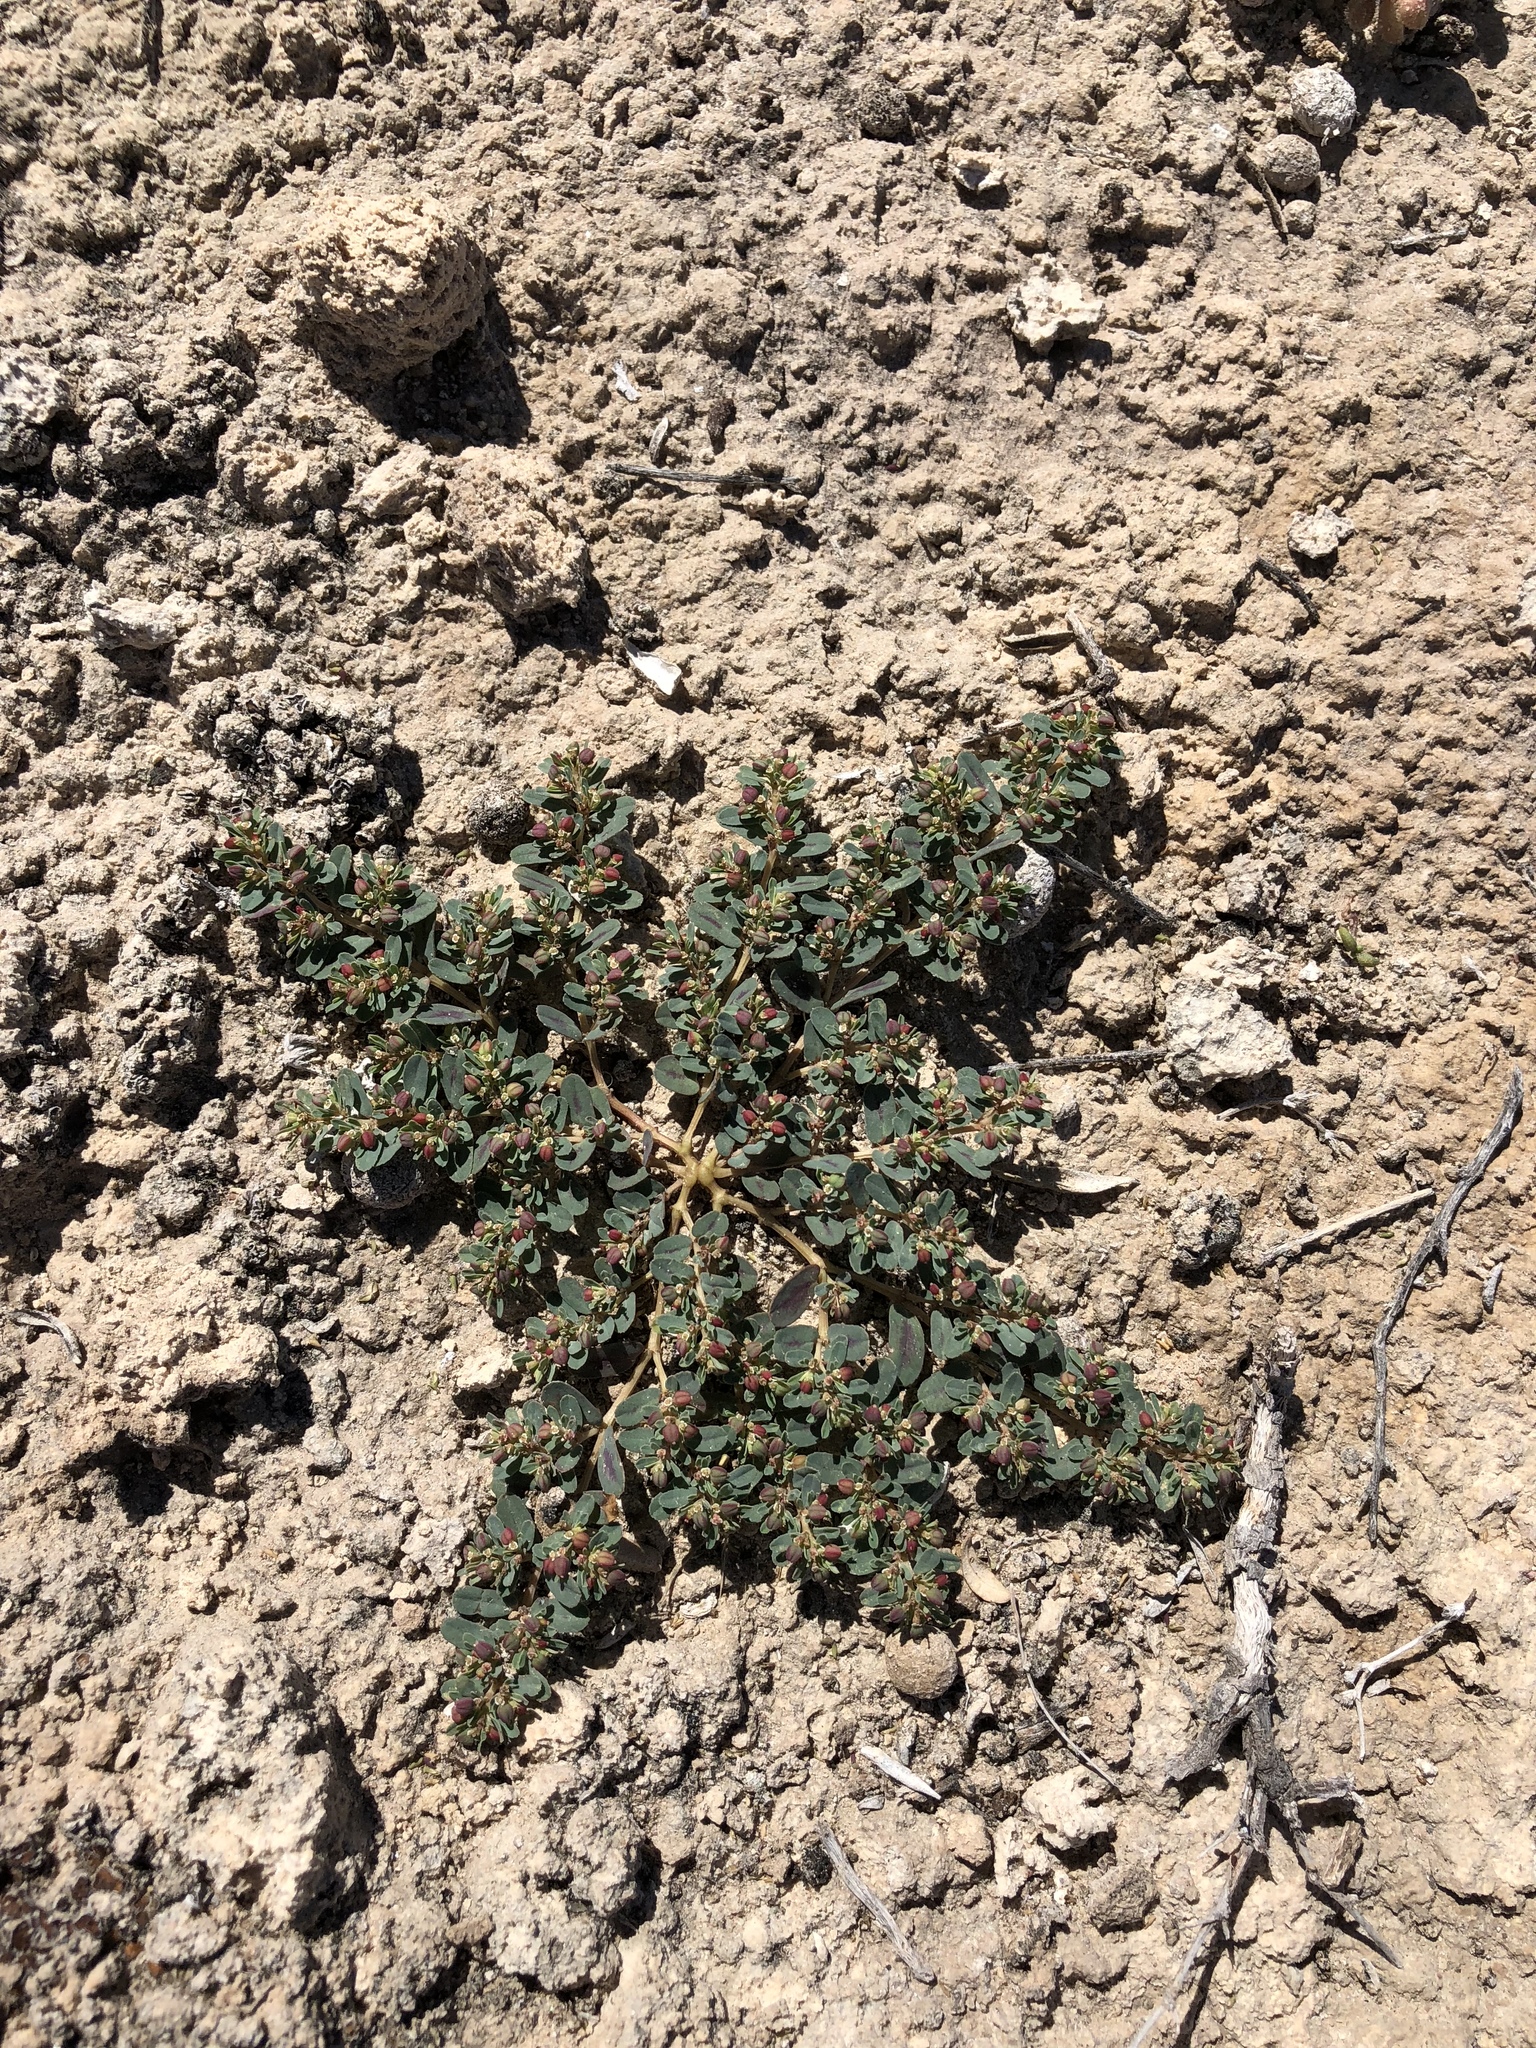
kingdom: Plantae
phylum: Tracheophyta
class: Magnoliopsida
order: Malpighiales
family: Euphorbiaceae
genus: Euphorbia
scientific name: Euphorbia serpillifolia
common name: Thyme-leaf spurge
